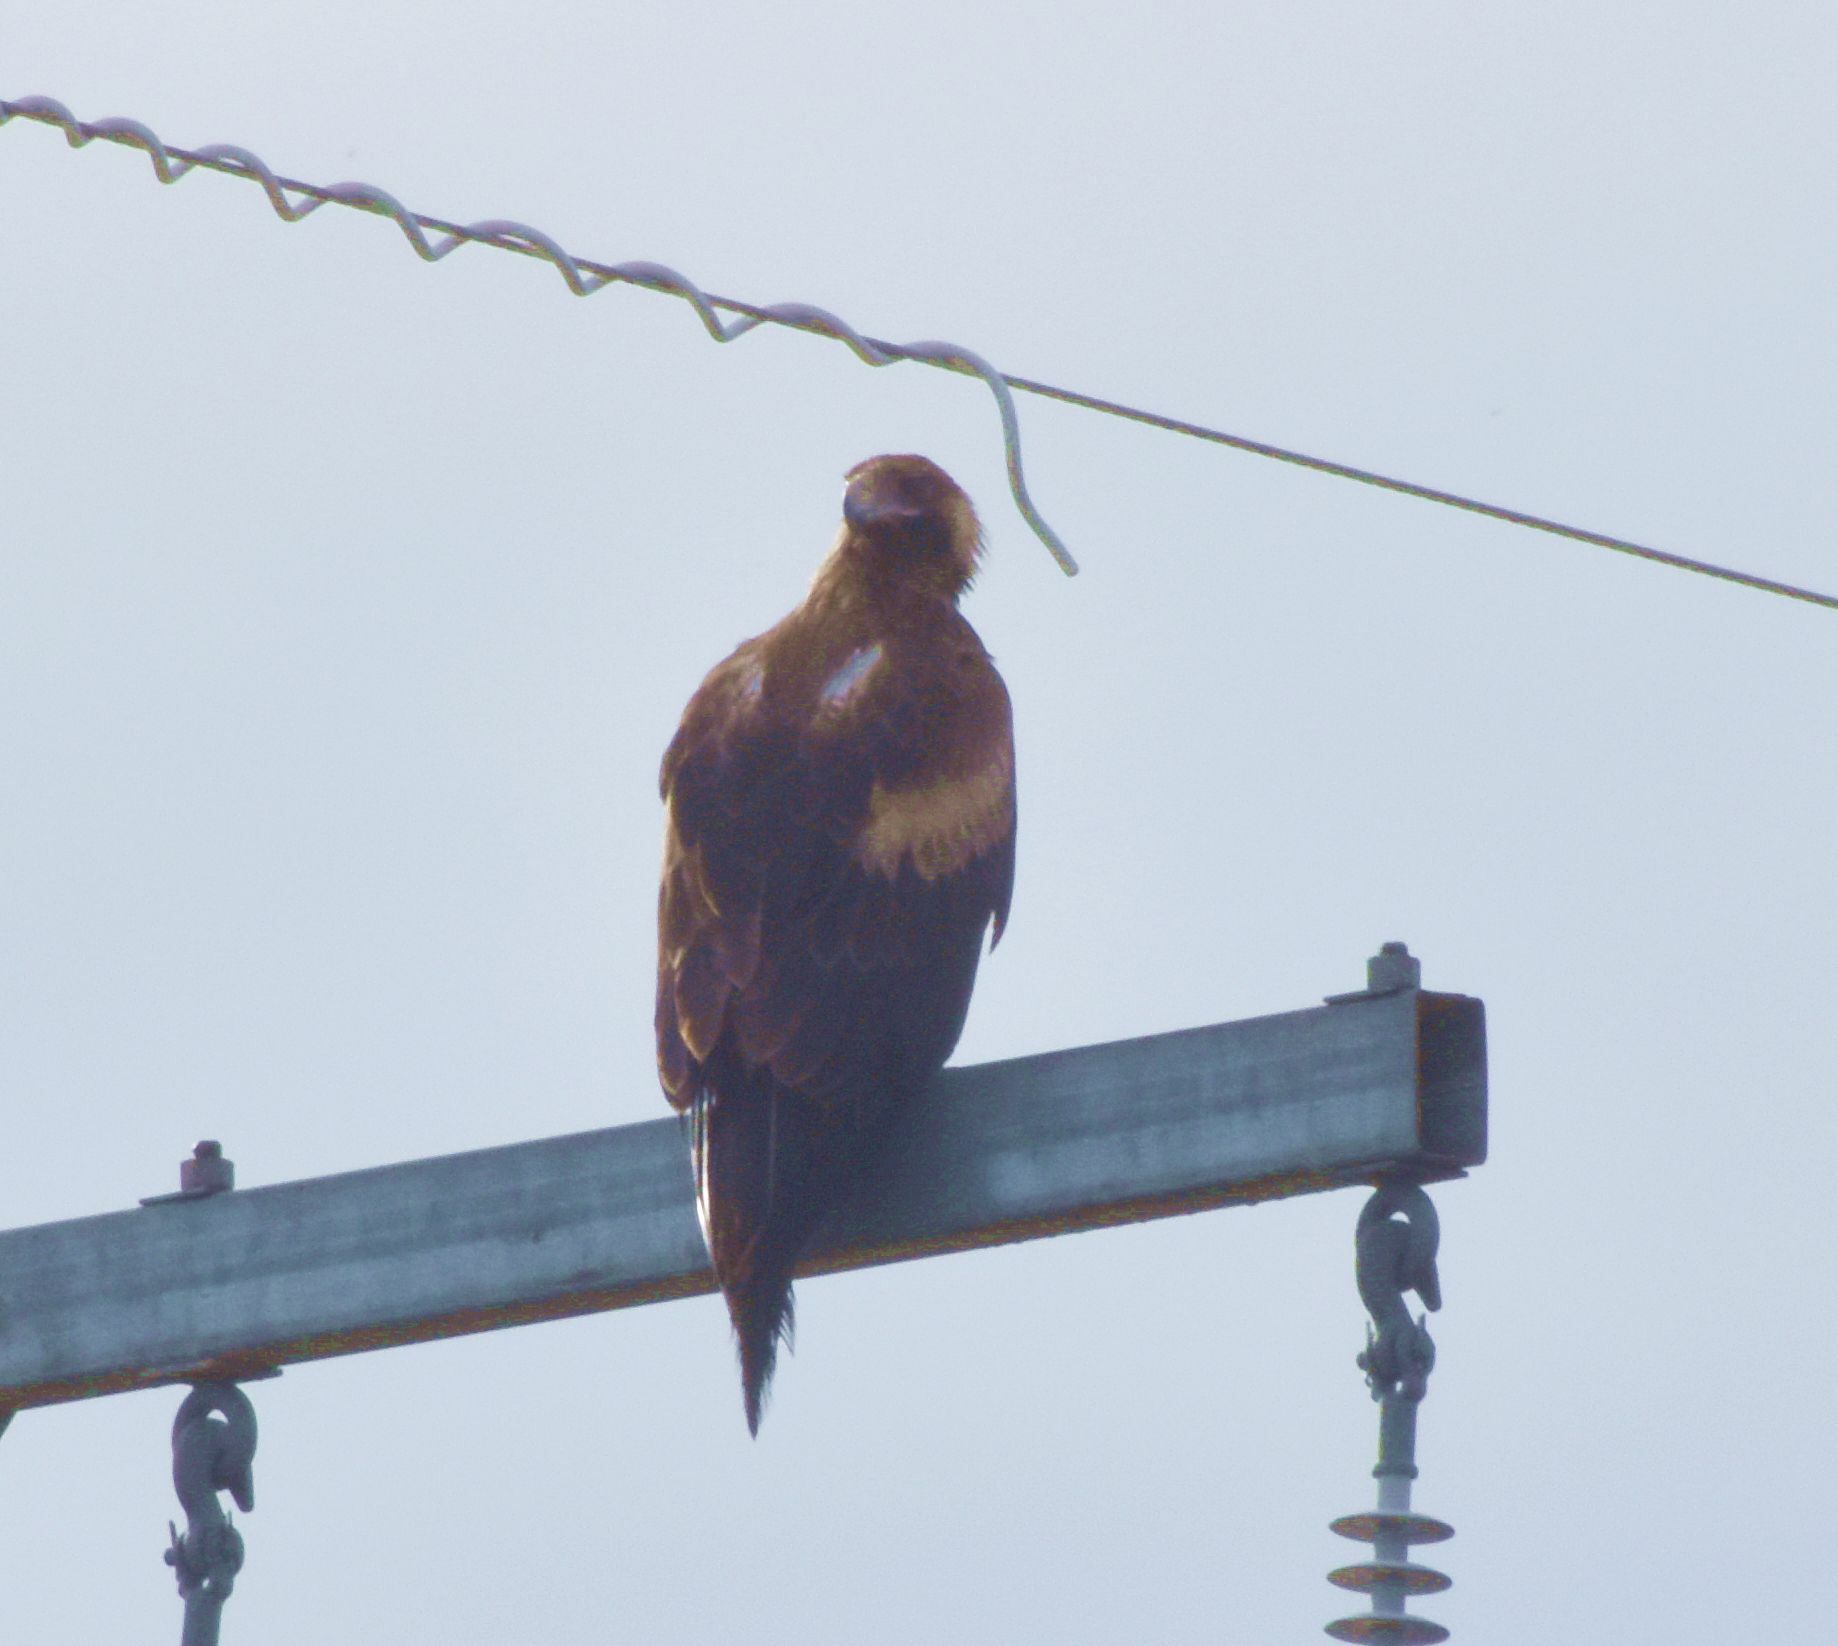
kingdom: Animalia
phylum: Chordata
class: Aves
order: Accipitriformes
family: Accipitridae
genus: Aquila
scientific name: Aquila audax
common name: Wedge-tailed eagle
